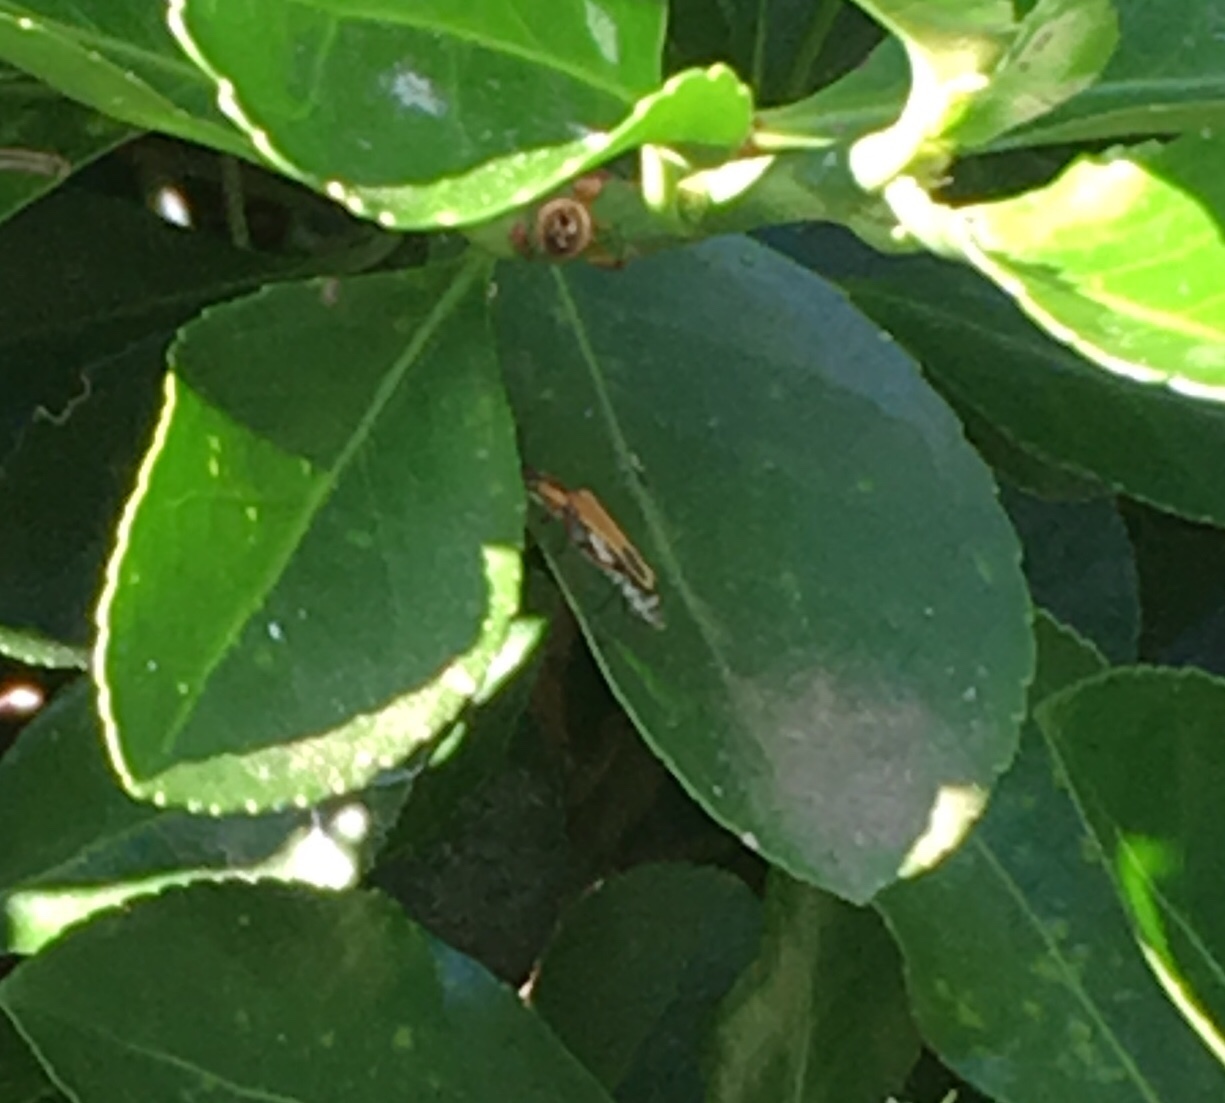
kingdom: Animalia
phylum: Arthropoda
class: Insecta
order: Coleoptera
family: Cantharidae
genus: Chauliognathus
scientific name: Chauliognathus marginatus
